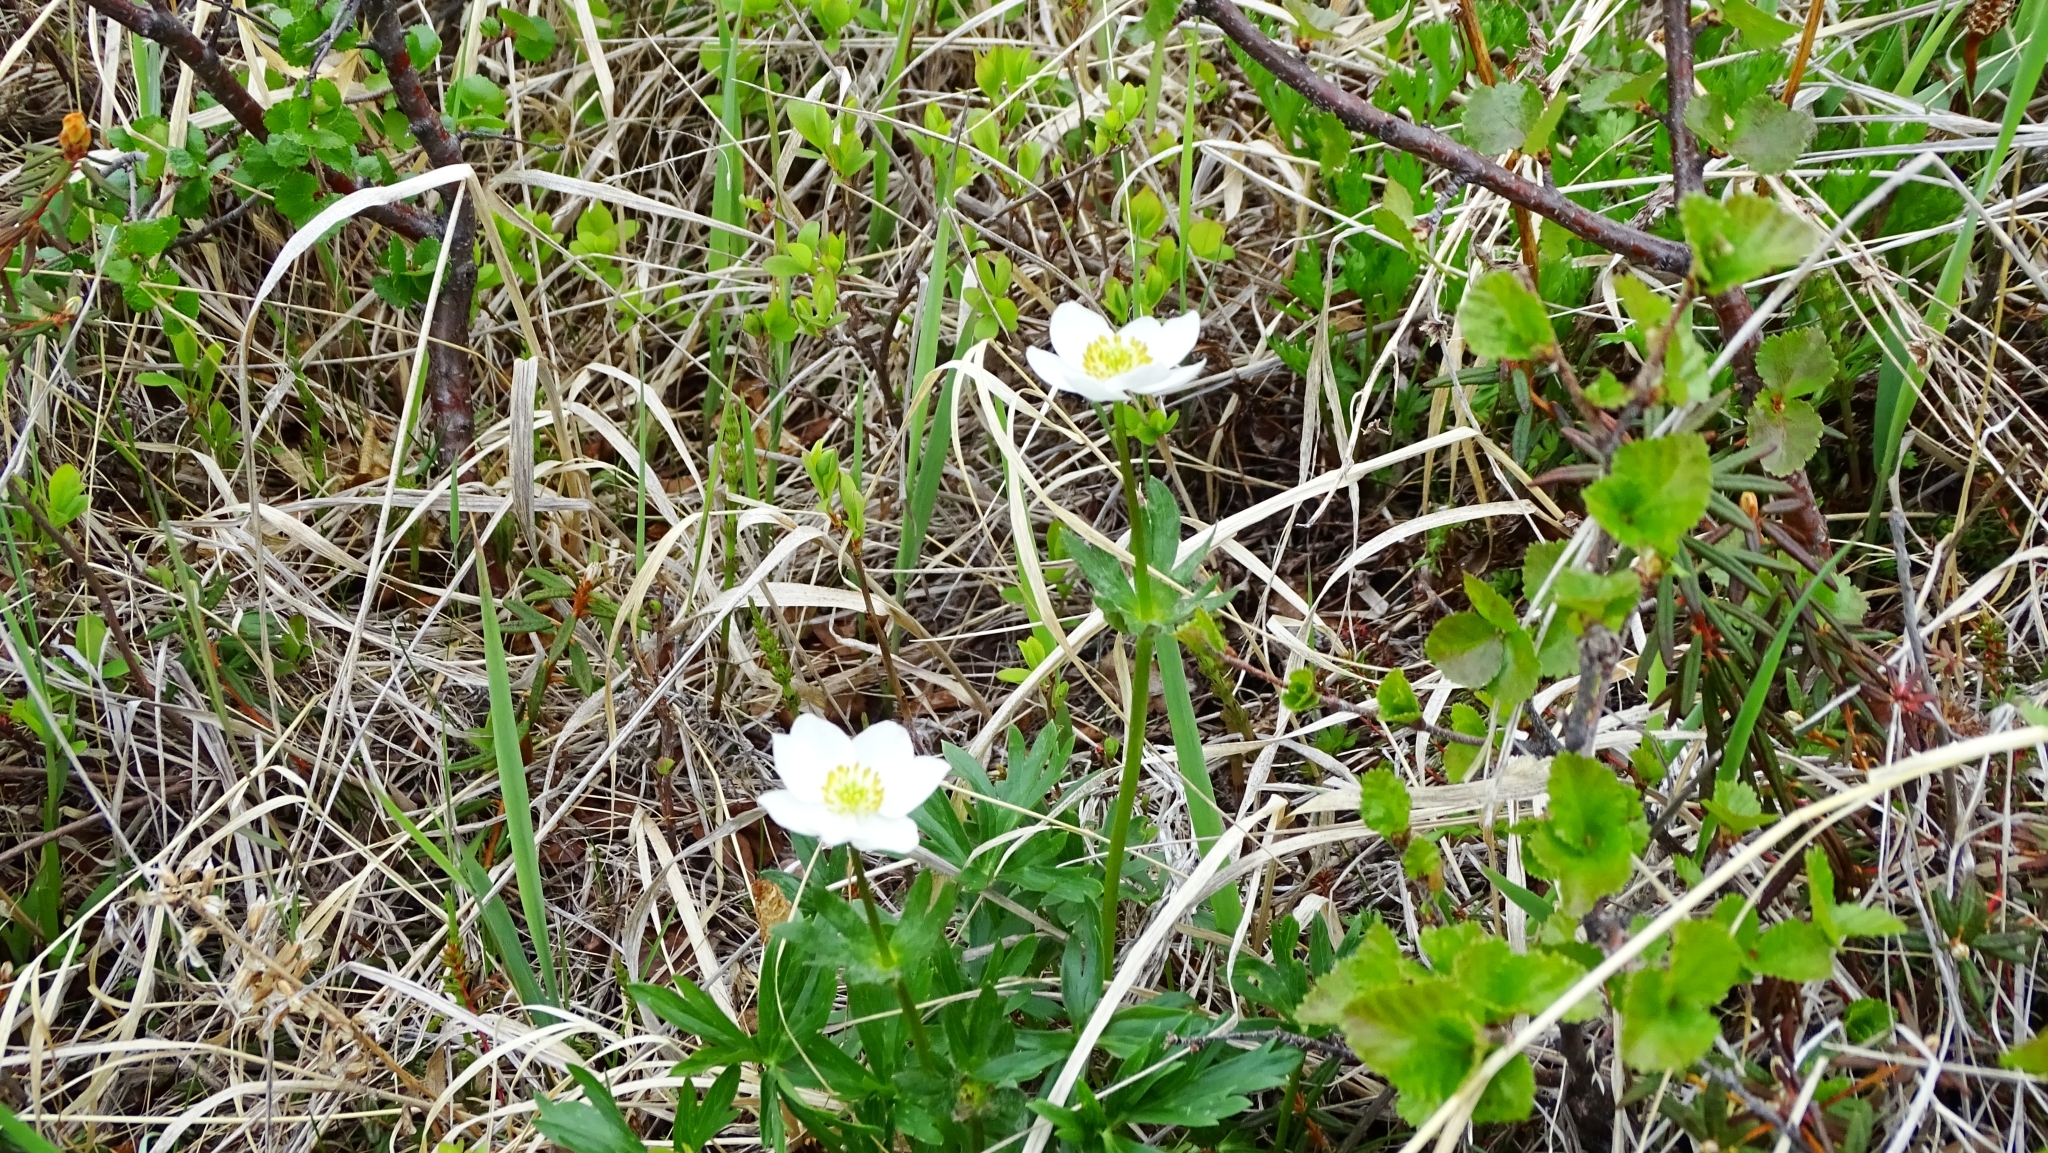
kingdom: Plantae
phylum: Tracheophyta
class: Magnoliopsida
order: Ranunculales
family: Ranunculaceae
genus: Anemonastrum
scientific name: Anemonastrum narcissiflorum
